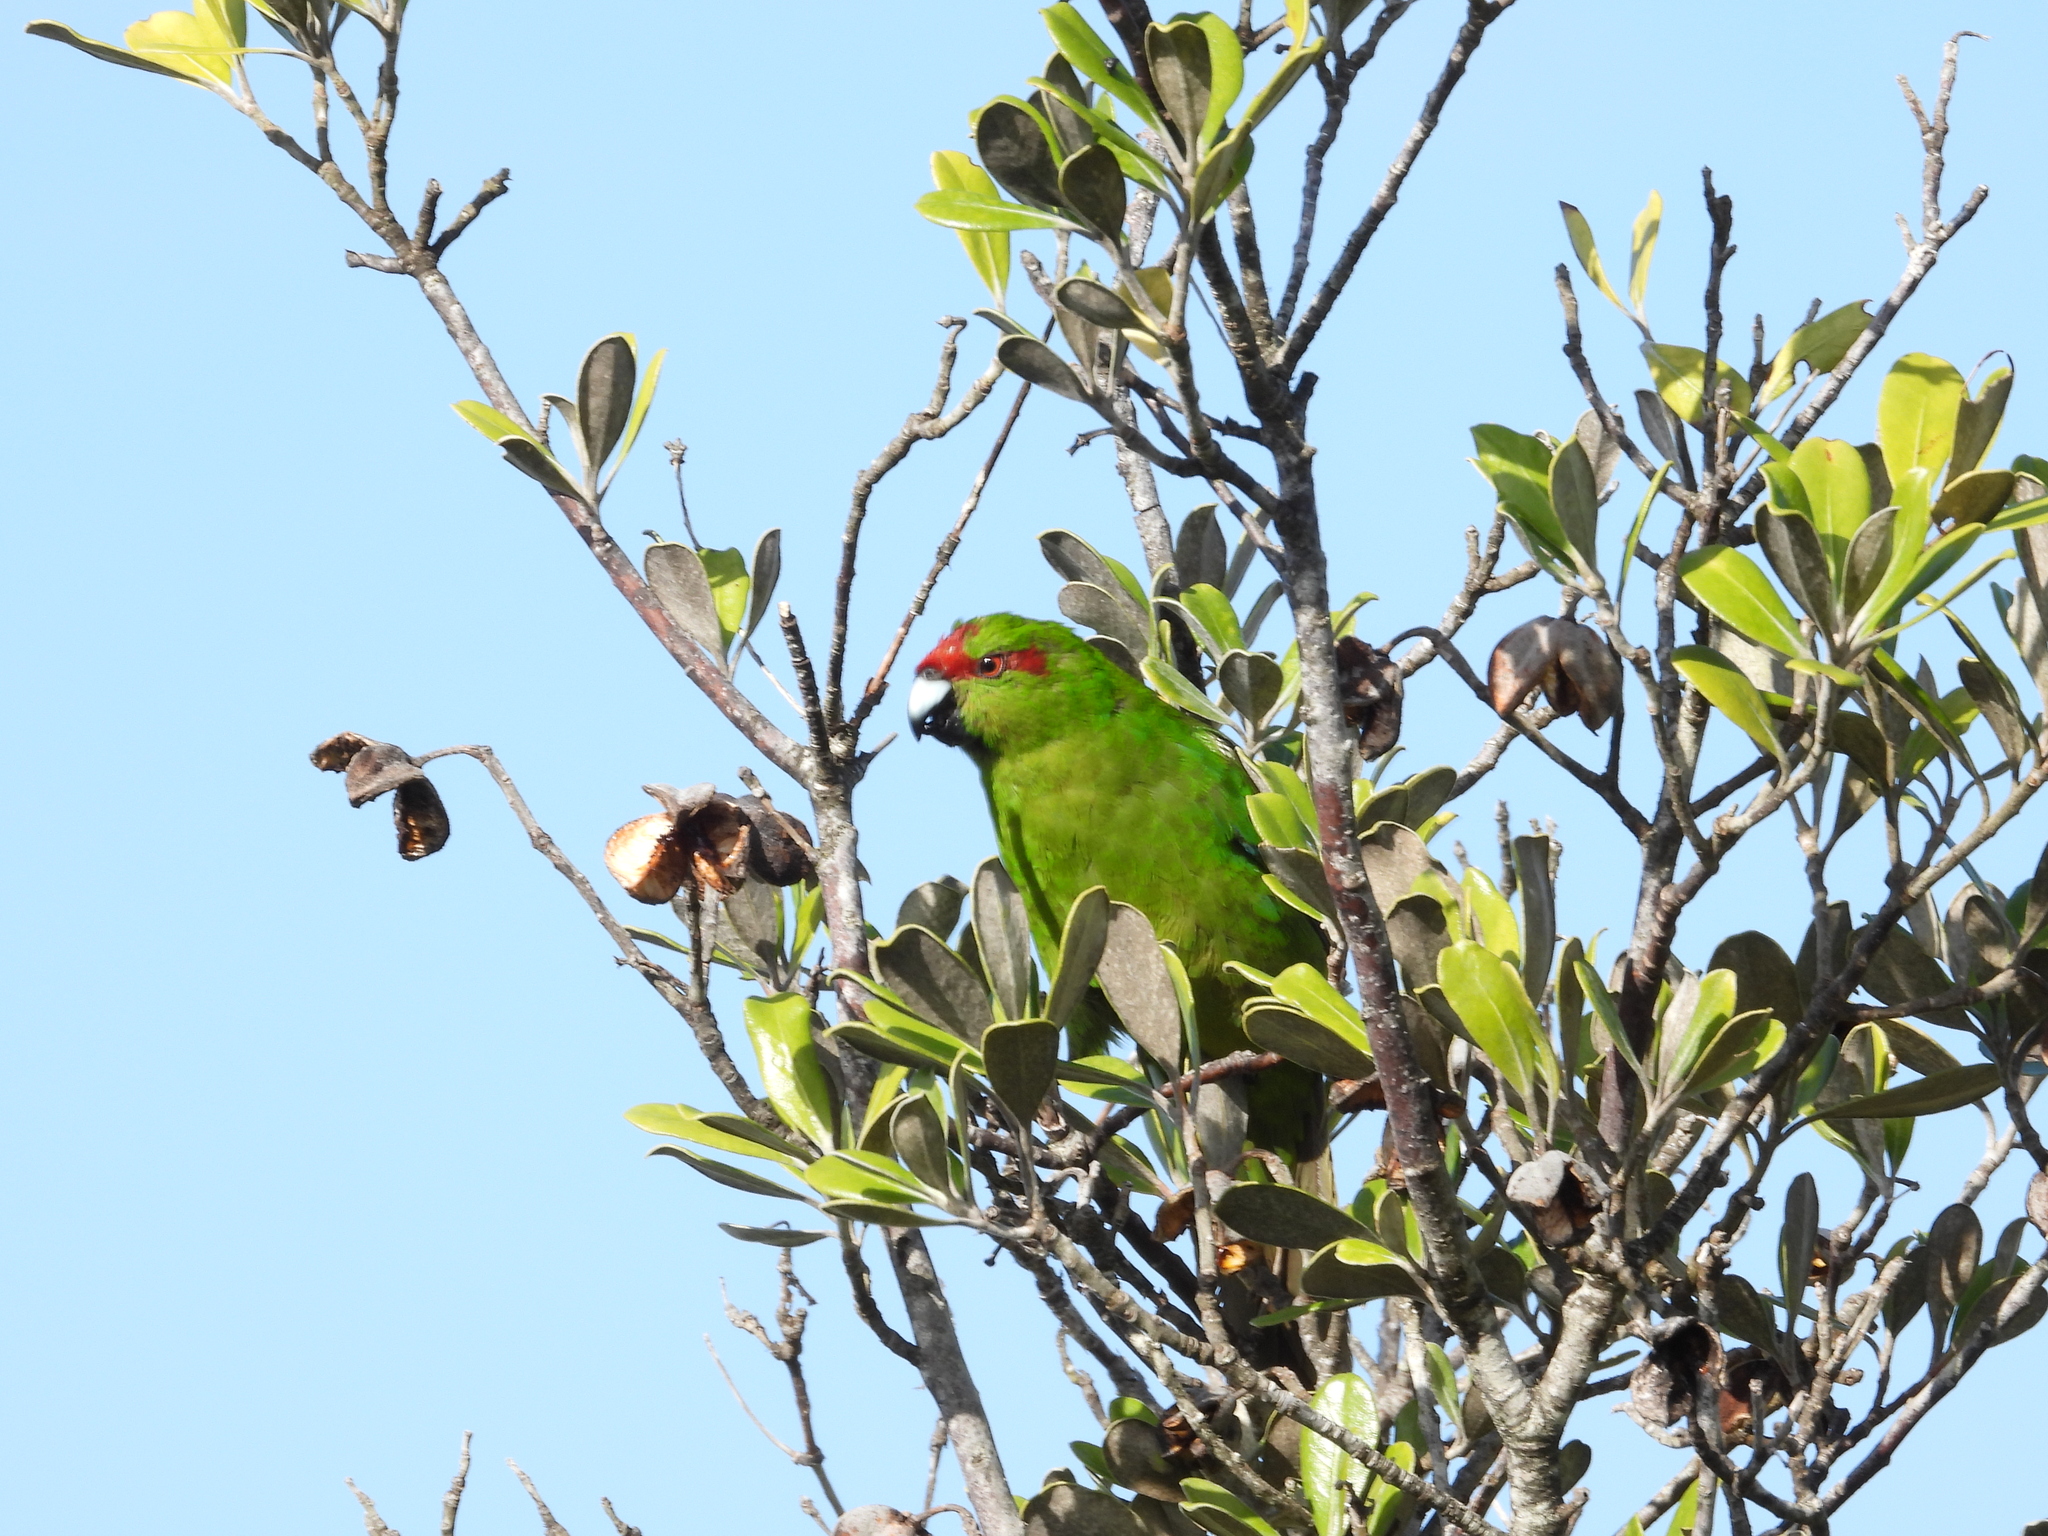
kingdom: Animalia
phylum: Chordata
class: Aves
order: Psittaciformes
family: Psittacidae
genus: Cyanoramphus
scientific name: Cyanoramphus novaezelandiae
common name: Red-fronted parakeet
